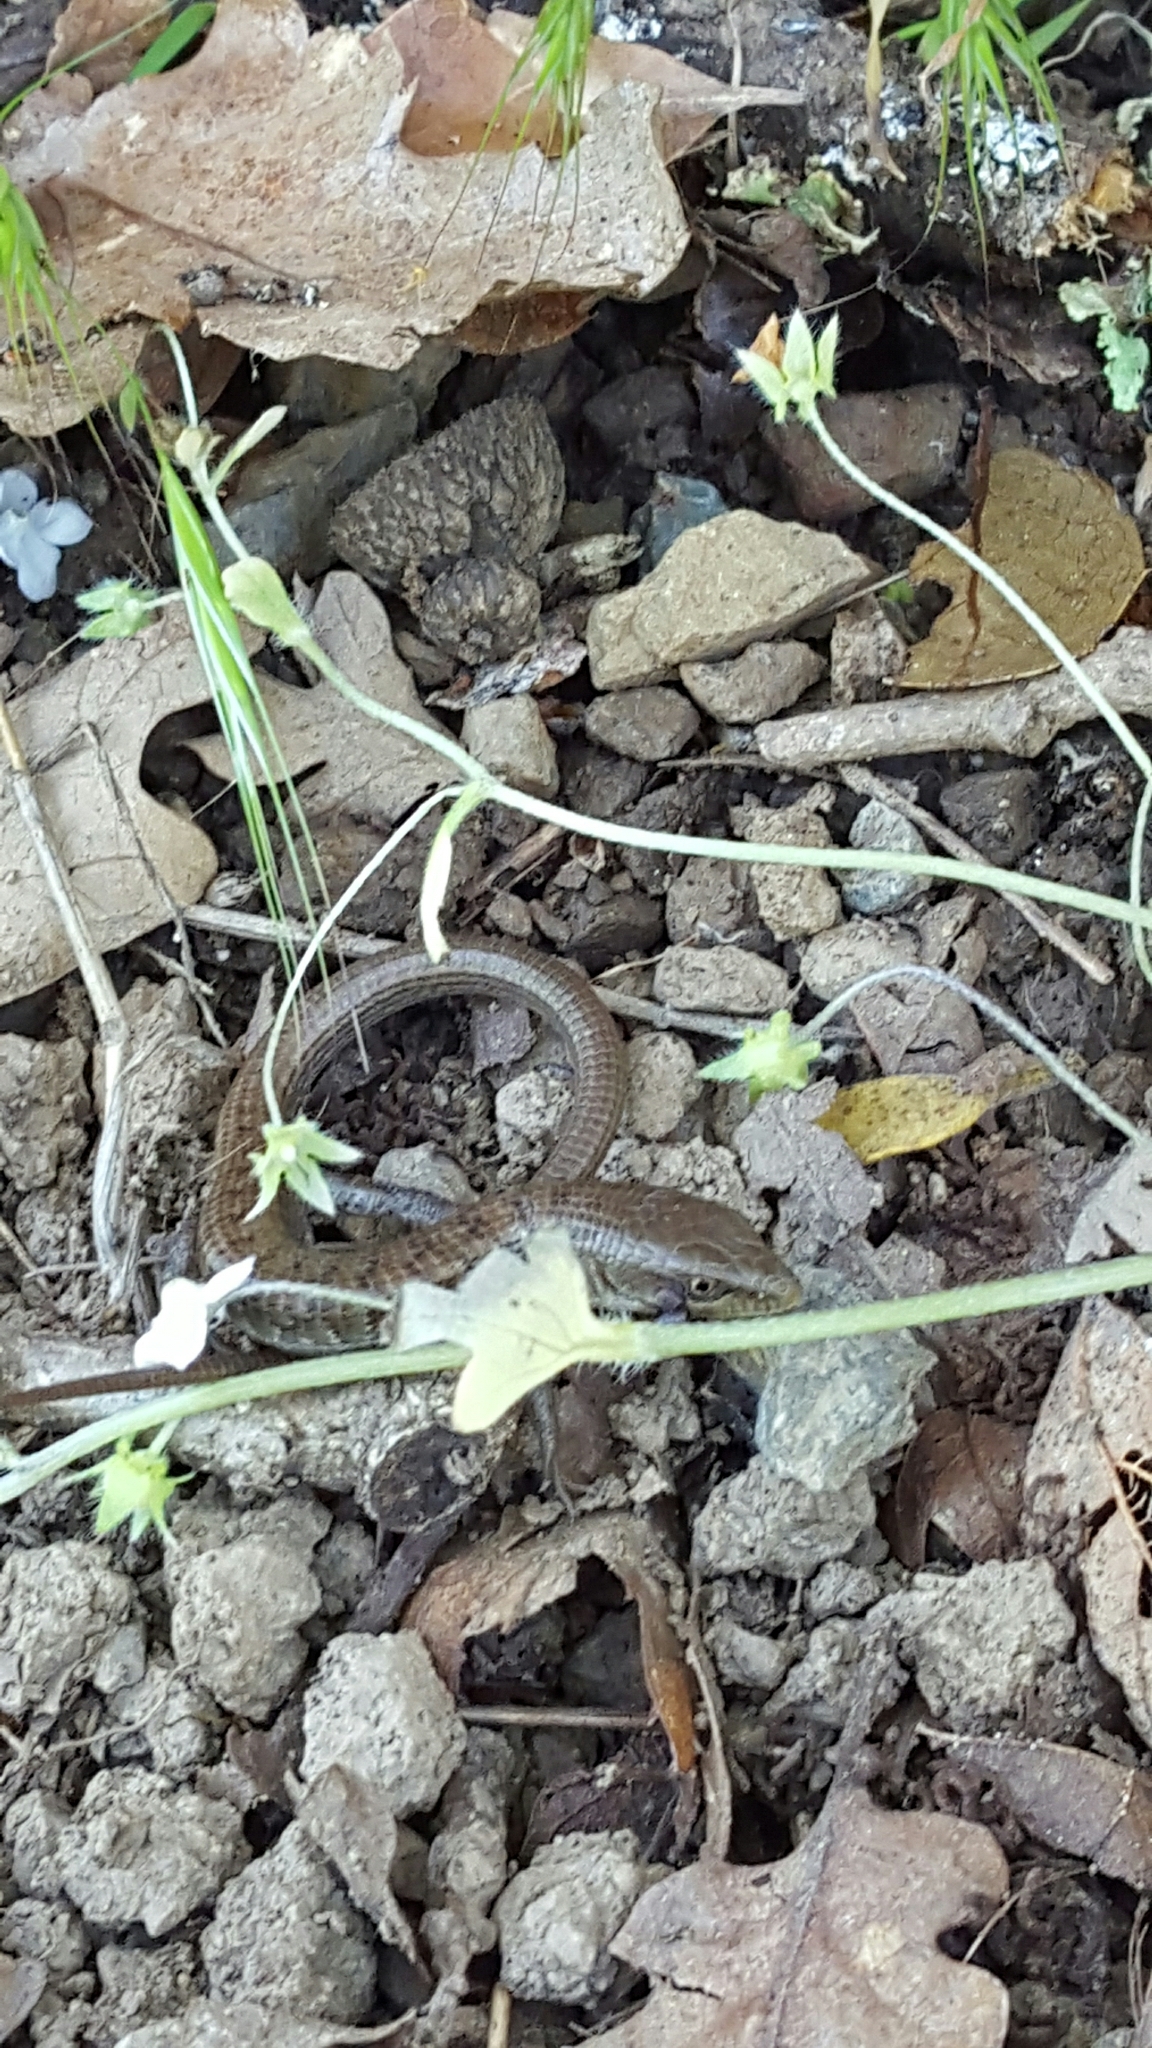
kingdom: Animalia
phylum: Chordata
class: Squamata
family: Anguidae
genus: Elgaria
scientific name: Elgaria multicarinata
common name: Southern alligator lizard
